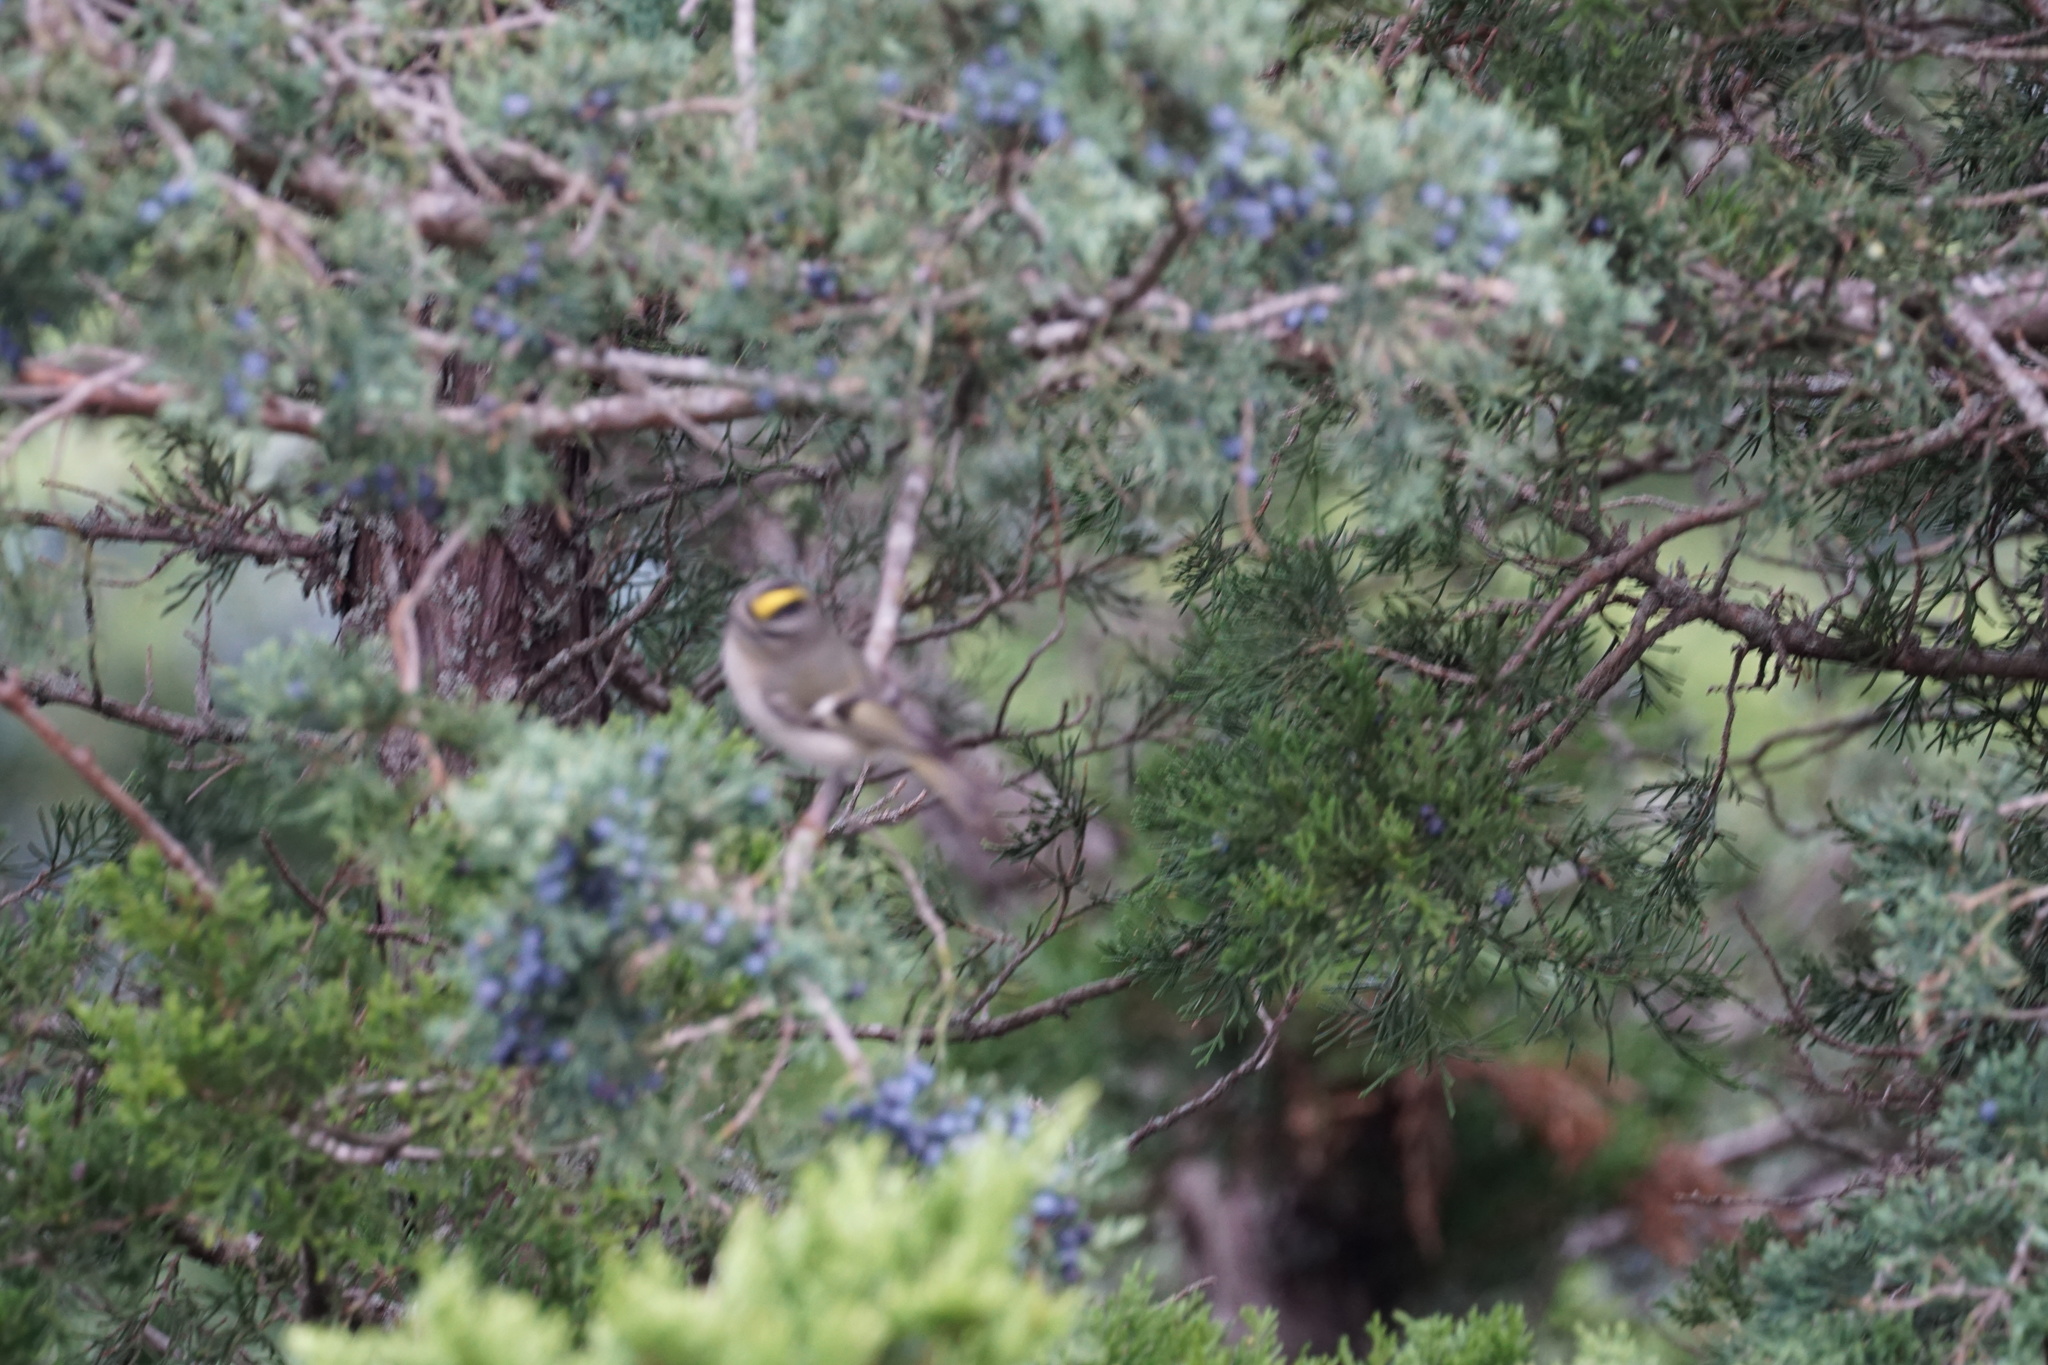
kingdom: Animalia
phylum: Chordata
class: Aves
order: Passeriformes
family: Regulidae
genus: Regulus
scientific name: Regulus satrapa
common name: Golden-crowned kinglet
